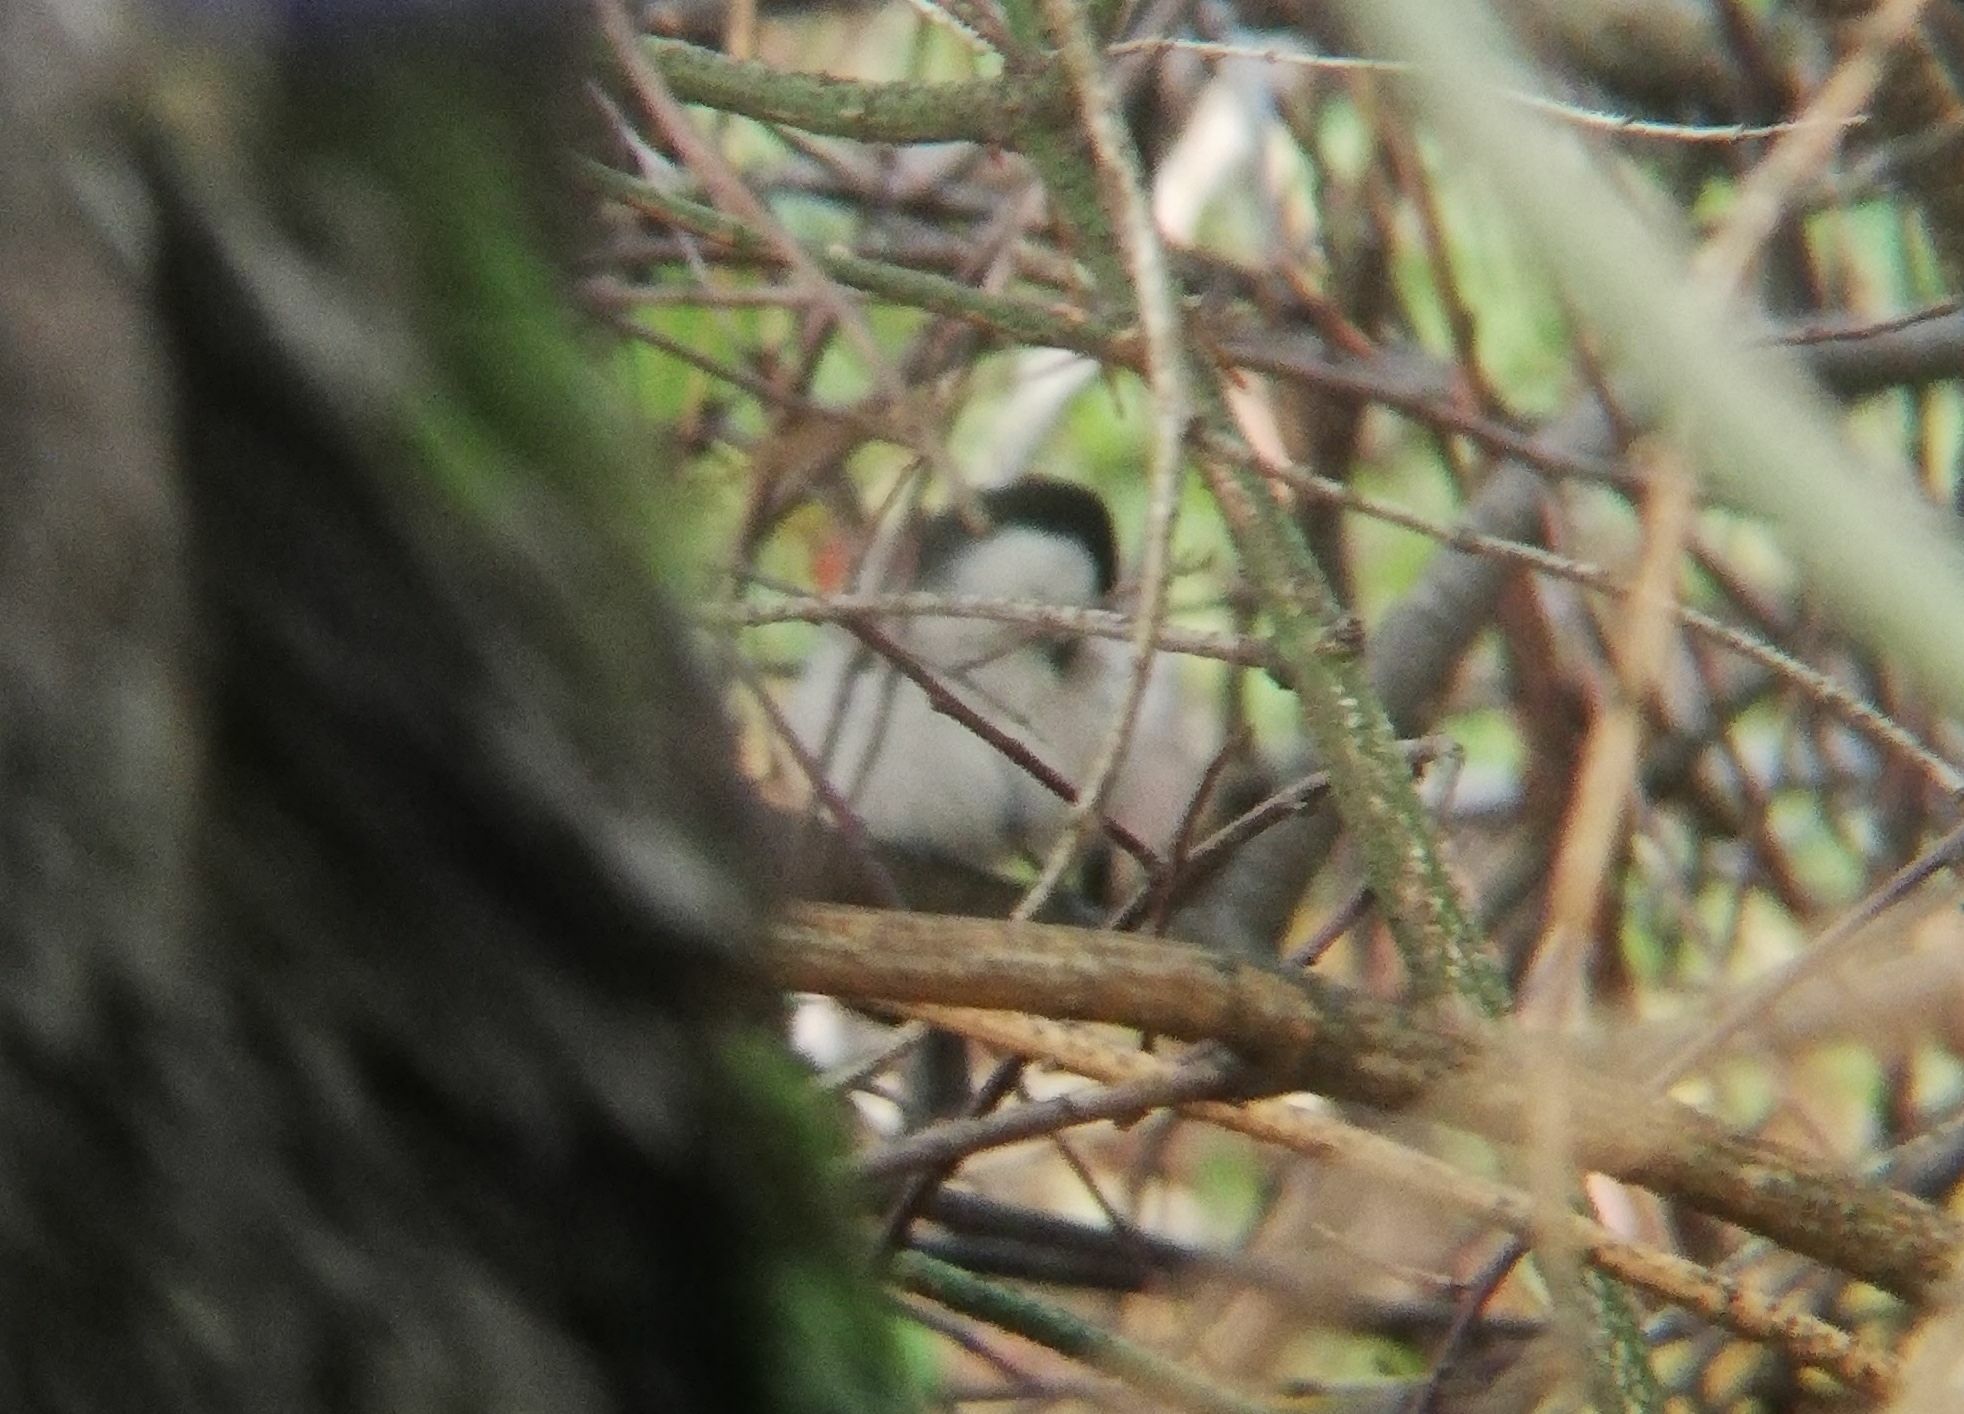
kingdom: Animalia
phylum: Chordata
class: Aves
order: Passeriformes
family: Paridae
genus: Poecile
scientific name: Poecile montanus
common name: Willow tit
